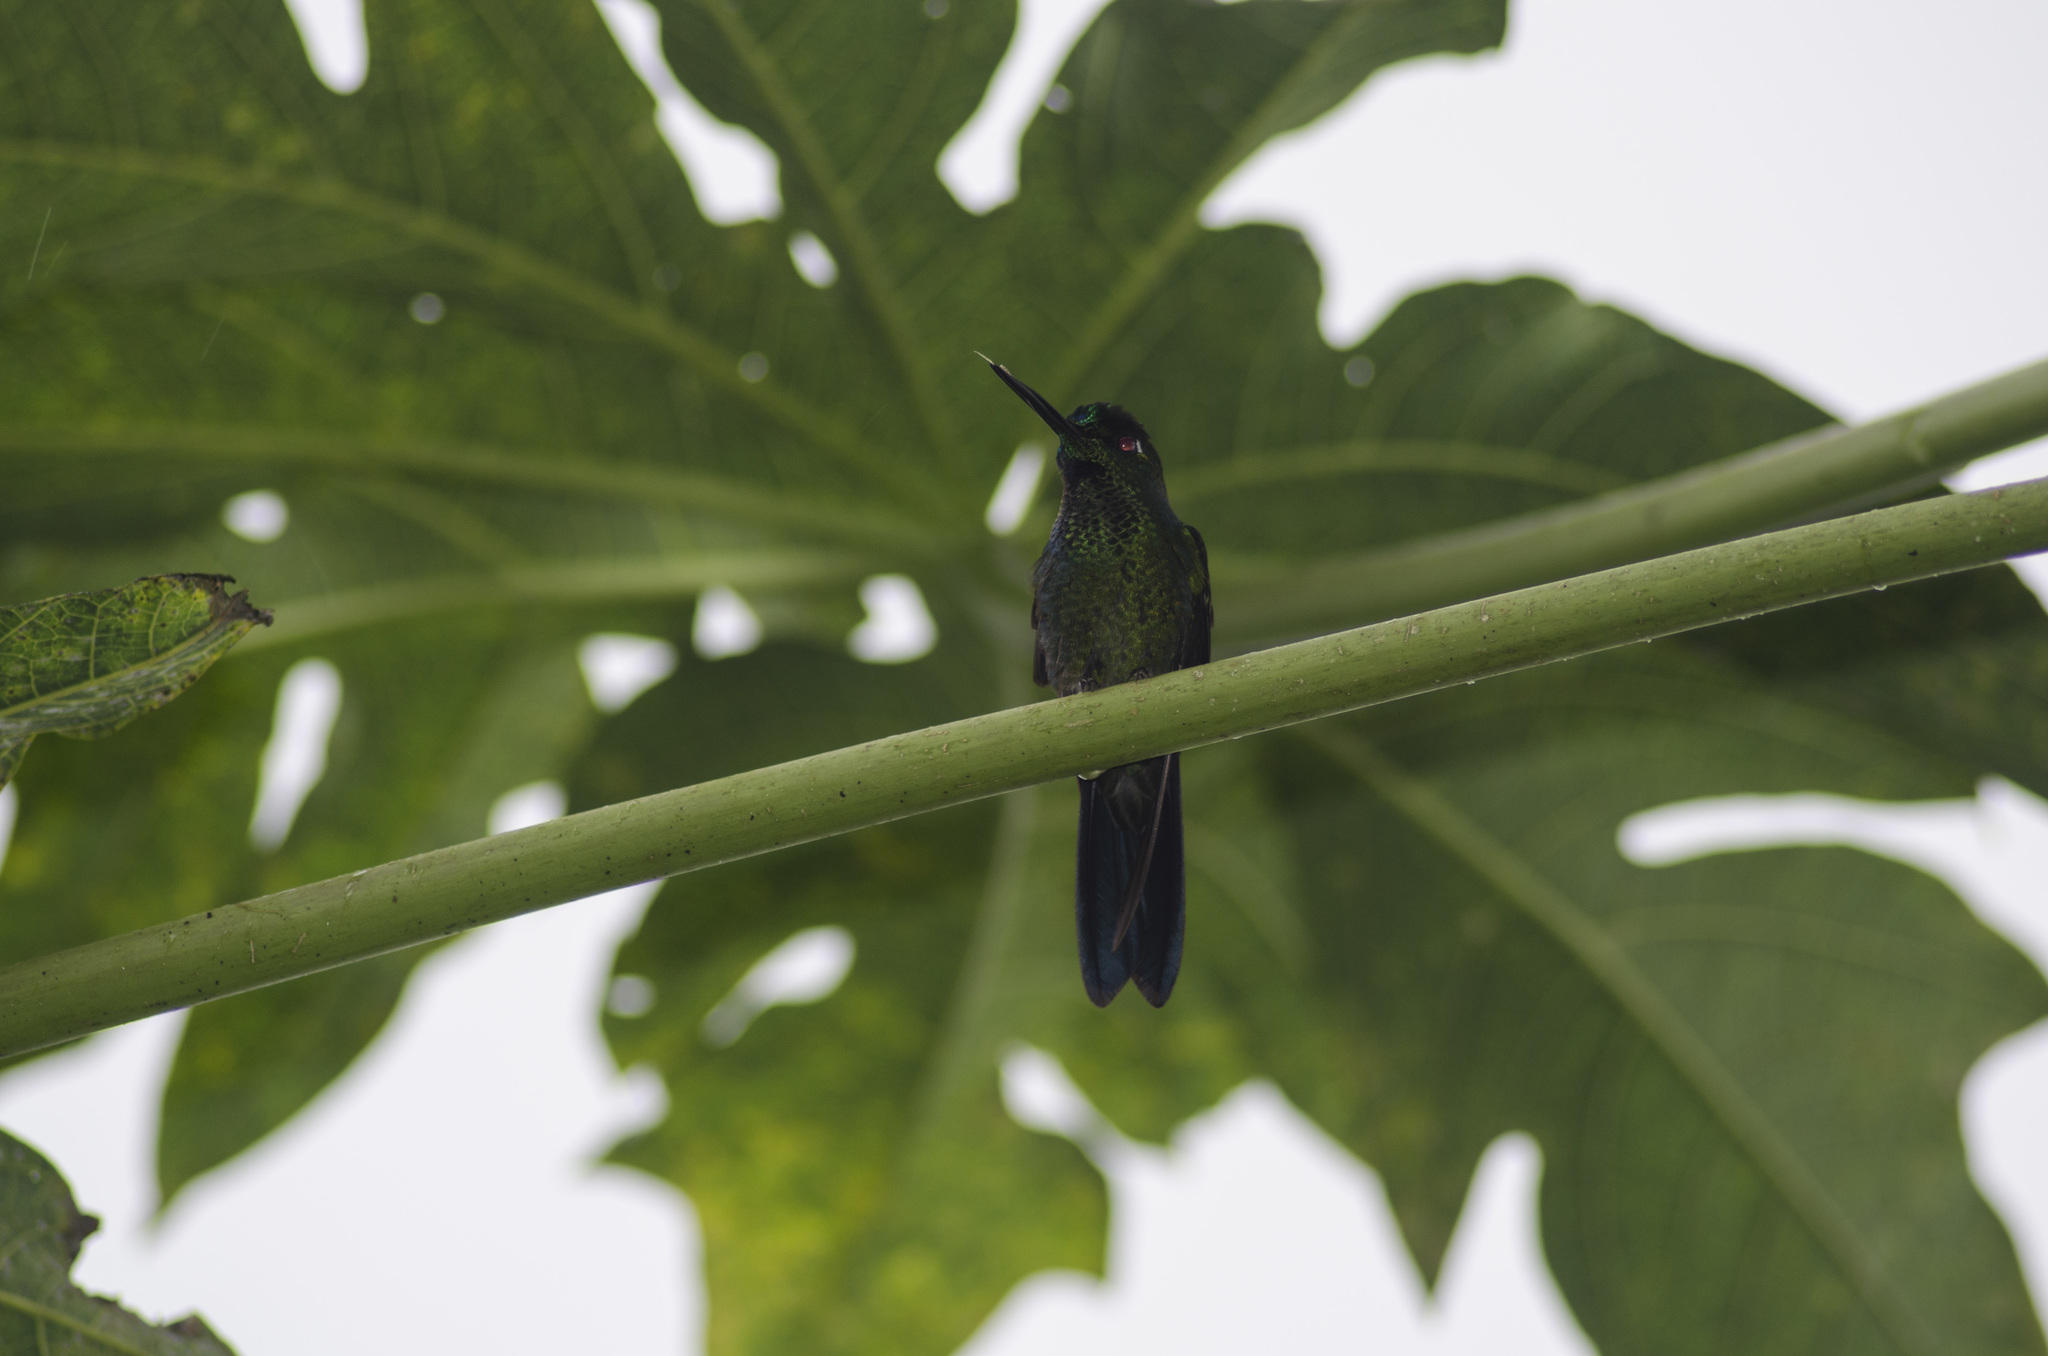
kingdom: Animalia
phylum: Chordata
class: Aves
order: Apodiformes
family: Trochilidae
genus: Heliodoxa
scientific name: Heliodoxa jacula
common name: Green-crowned brilliant
